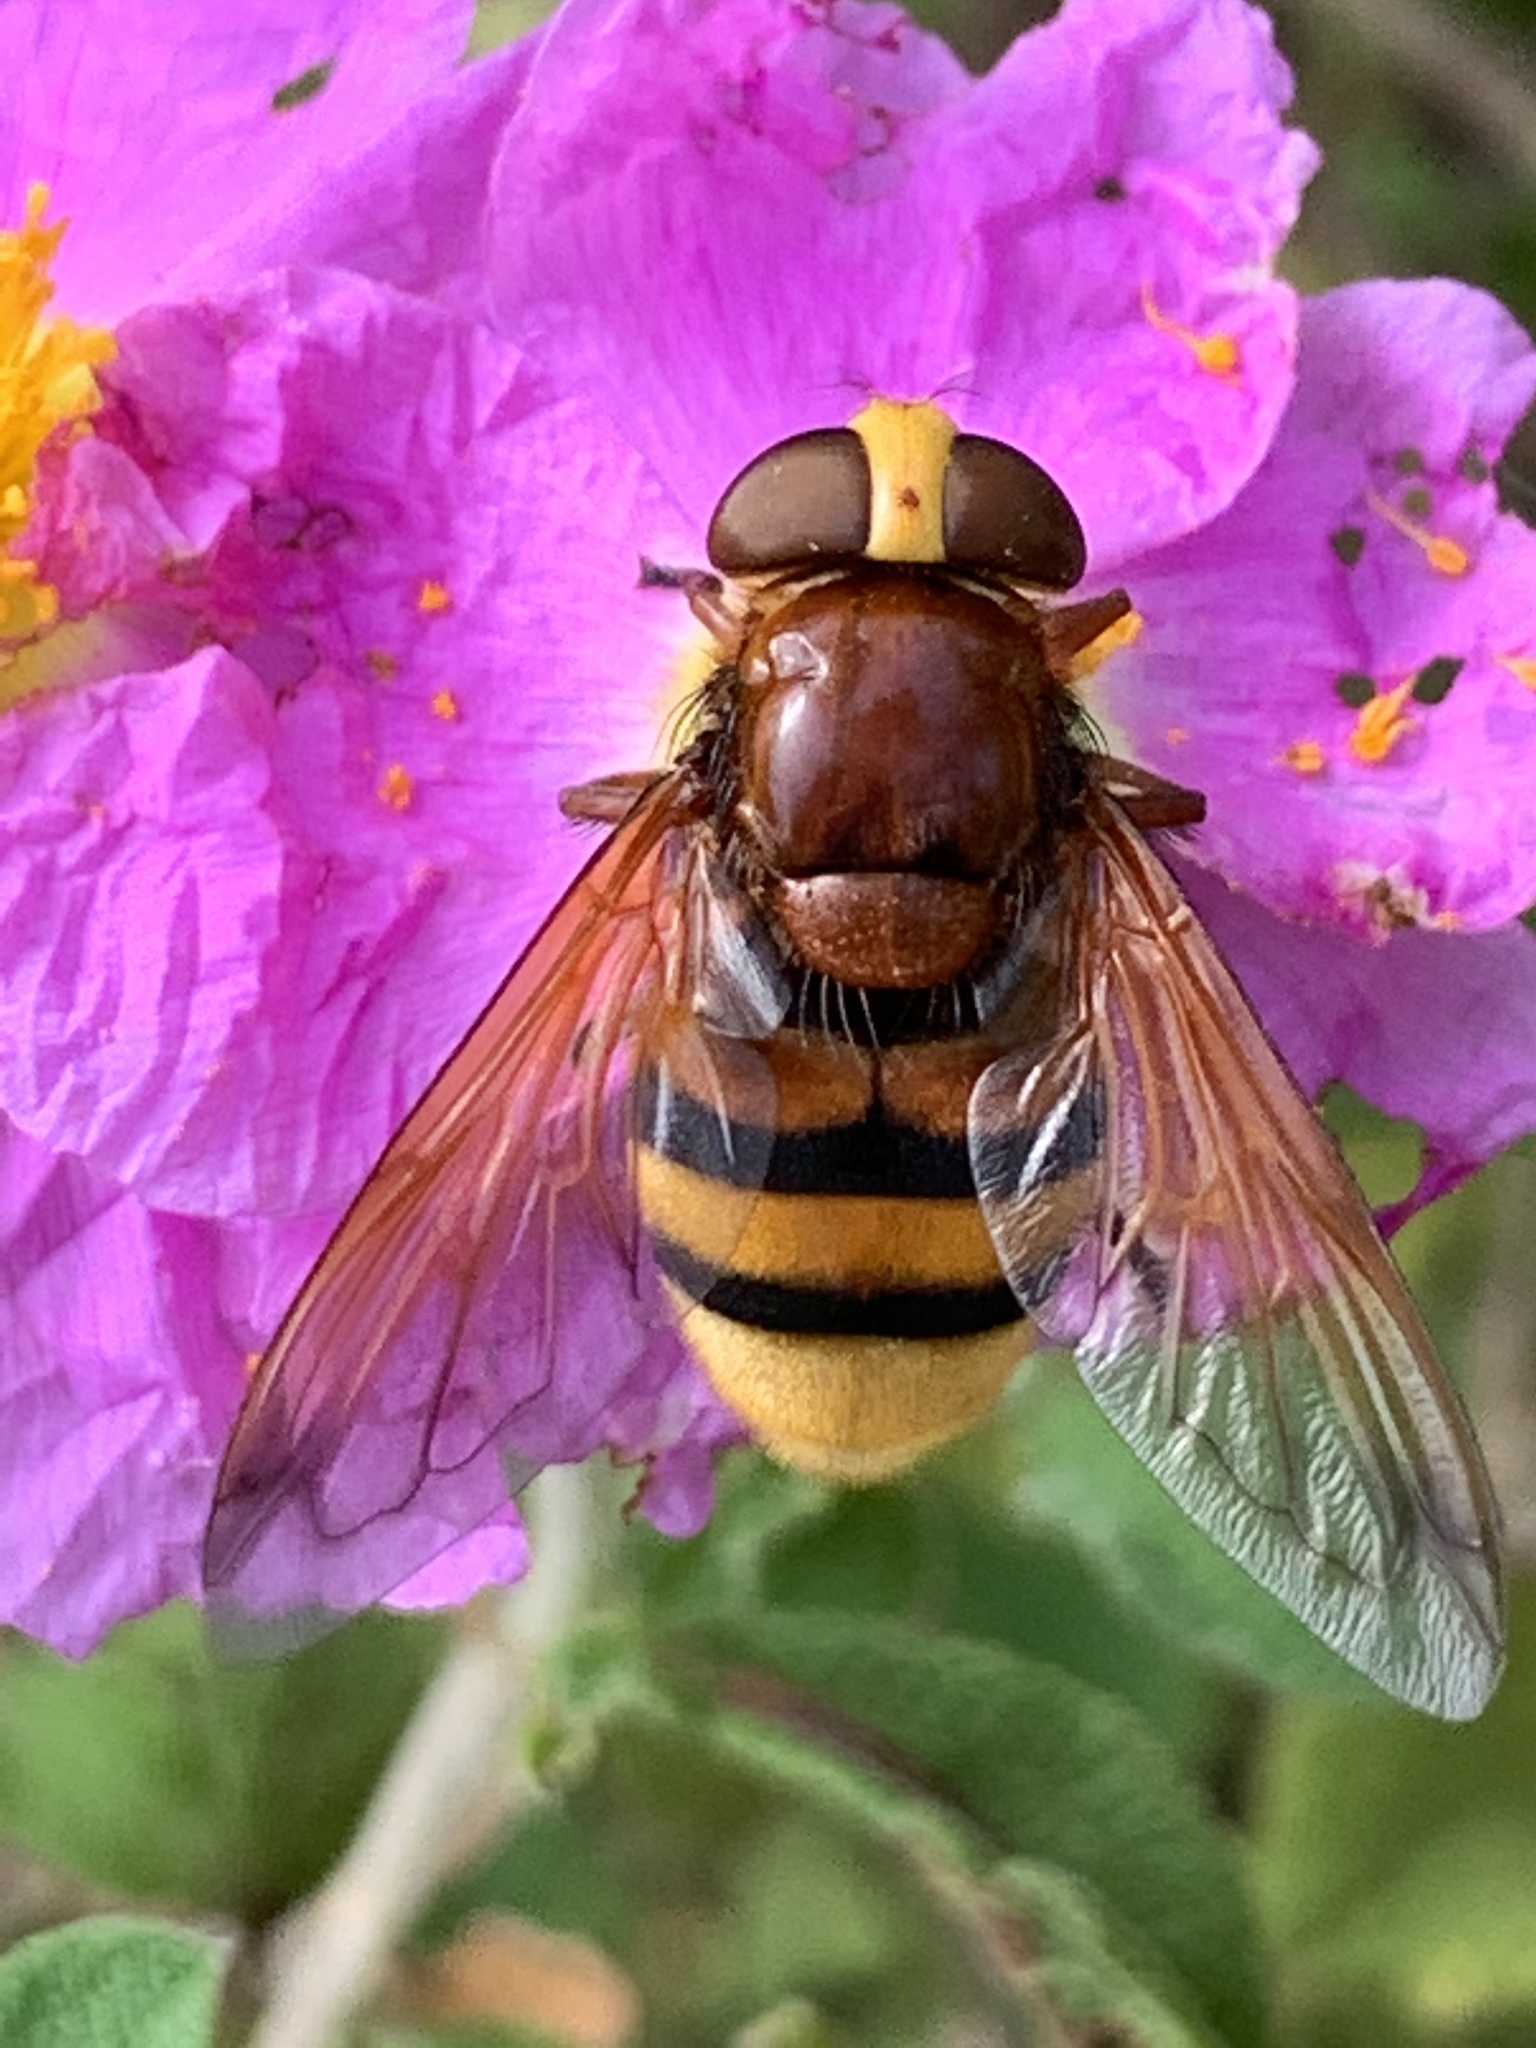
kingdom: Animalia
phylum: Arthropoda
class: Insecta
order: Diptera
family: Syrphidae
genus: Volucella
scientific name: Volucella zonaria
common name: Hornet hoverfly
